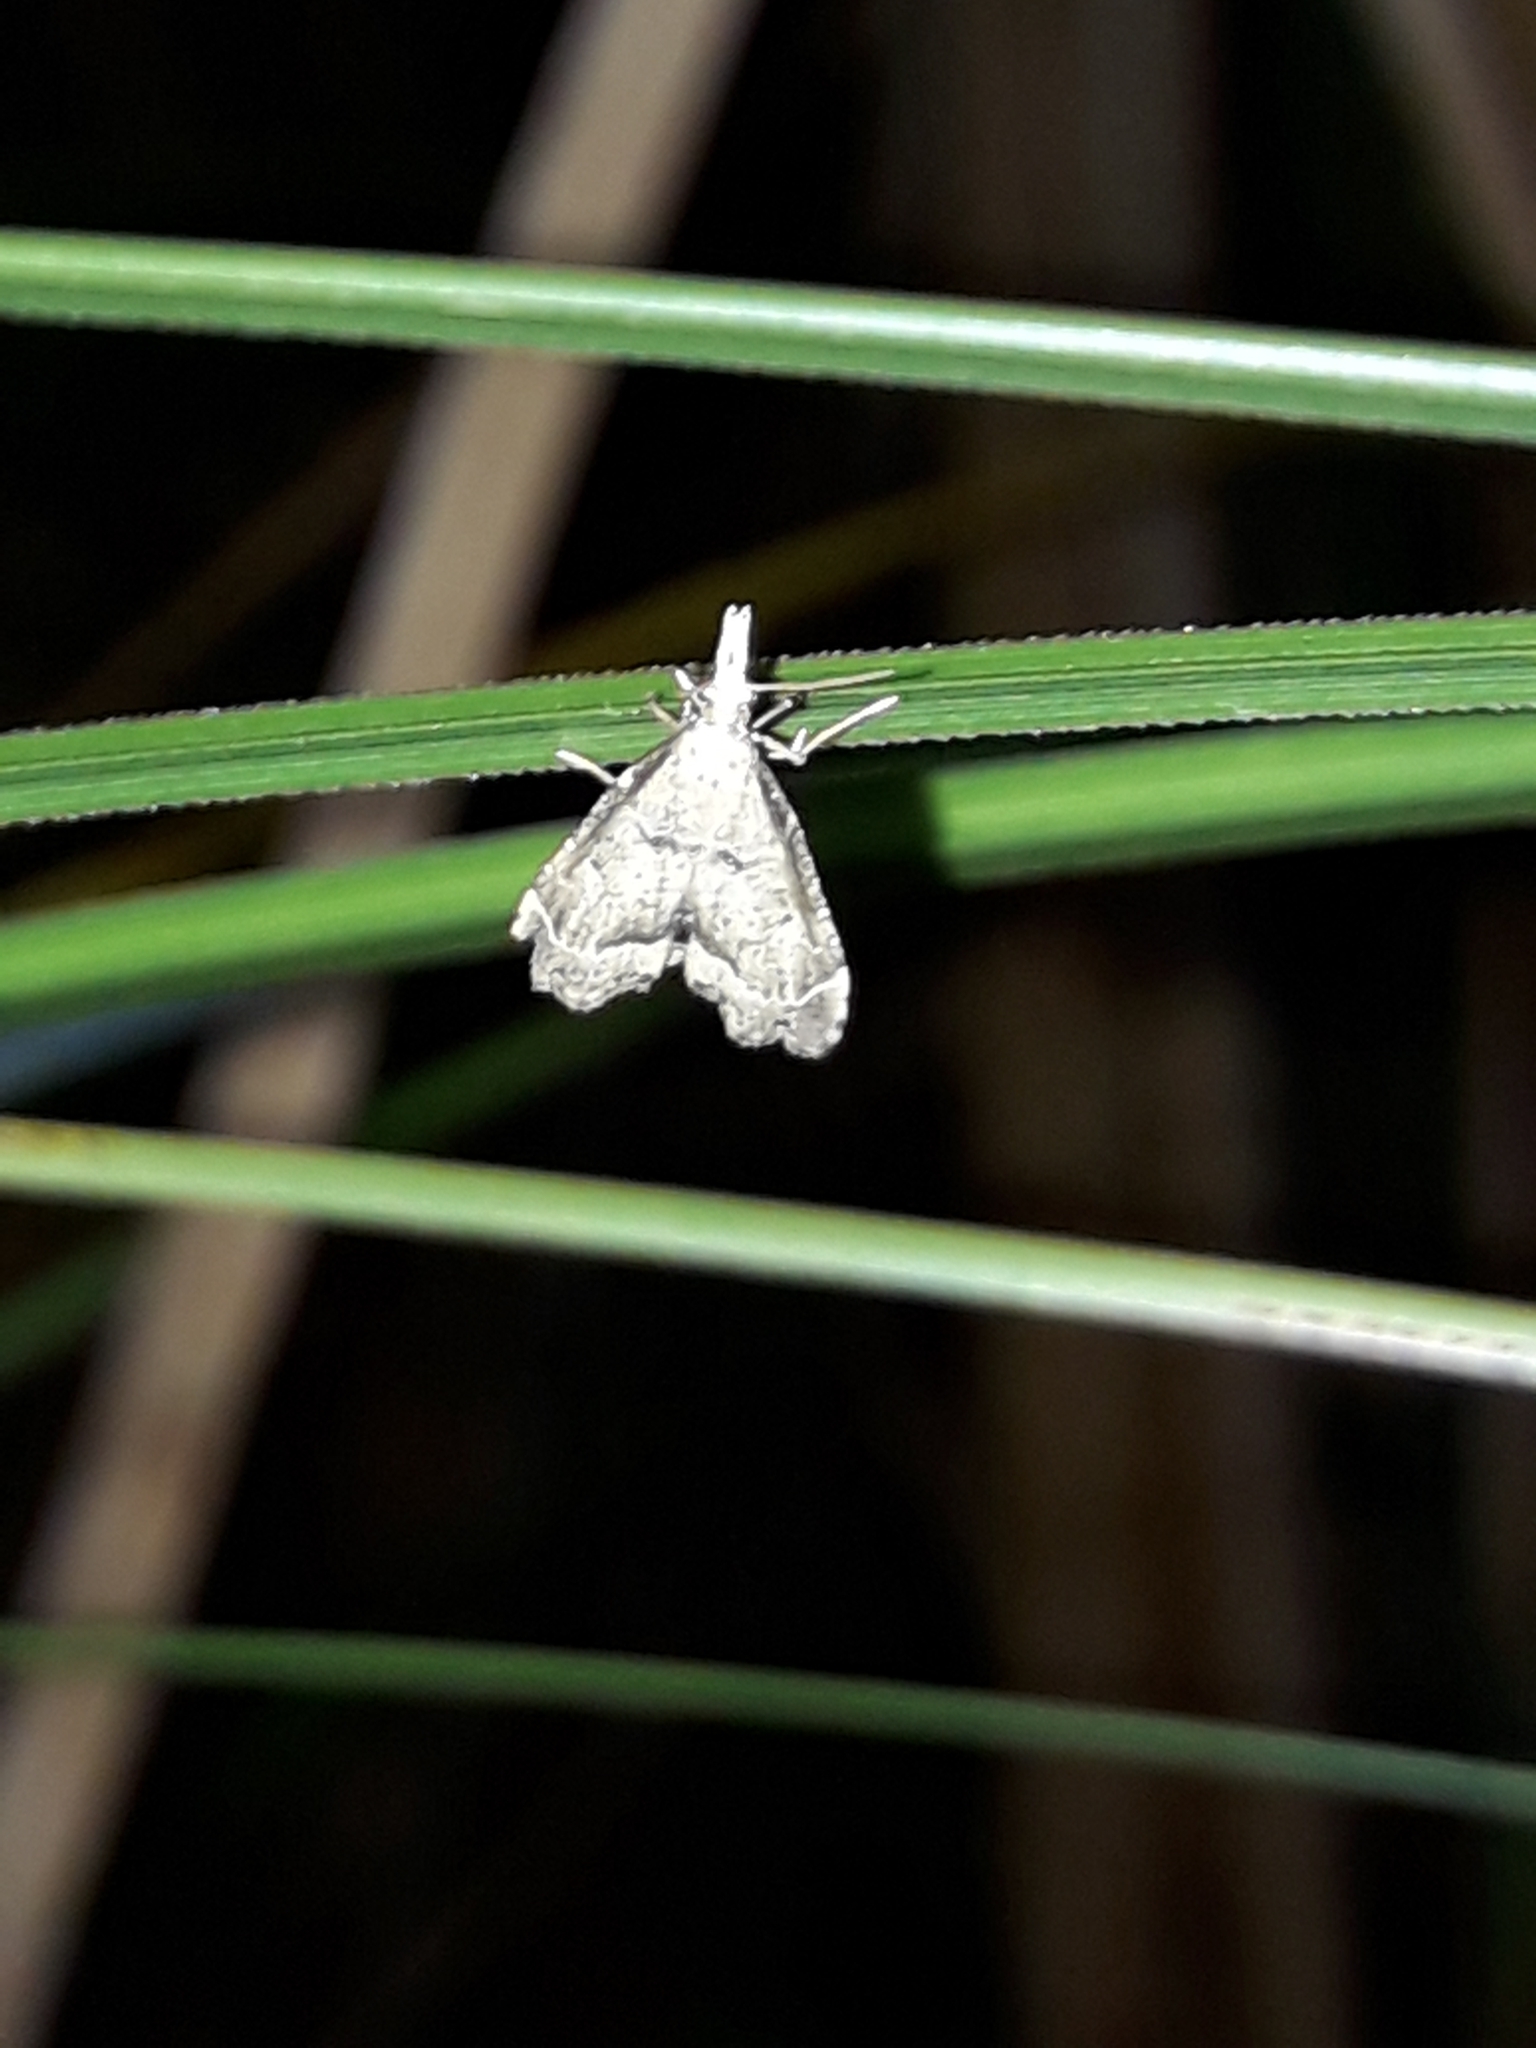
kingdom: Animalia
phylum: Arthropoda
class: Insecta
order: Lepidoptera
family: Crambidae
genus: Diplopseustis
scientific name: Diplopseustis perieresalis
